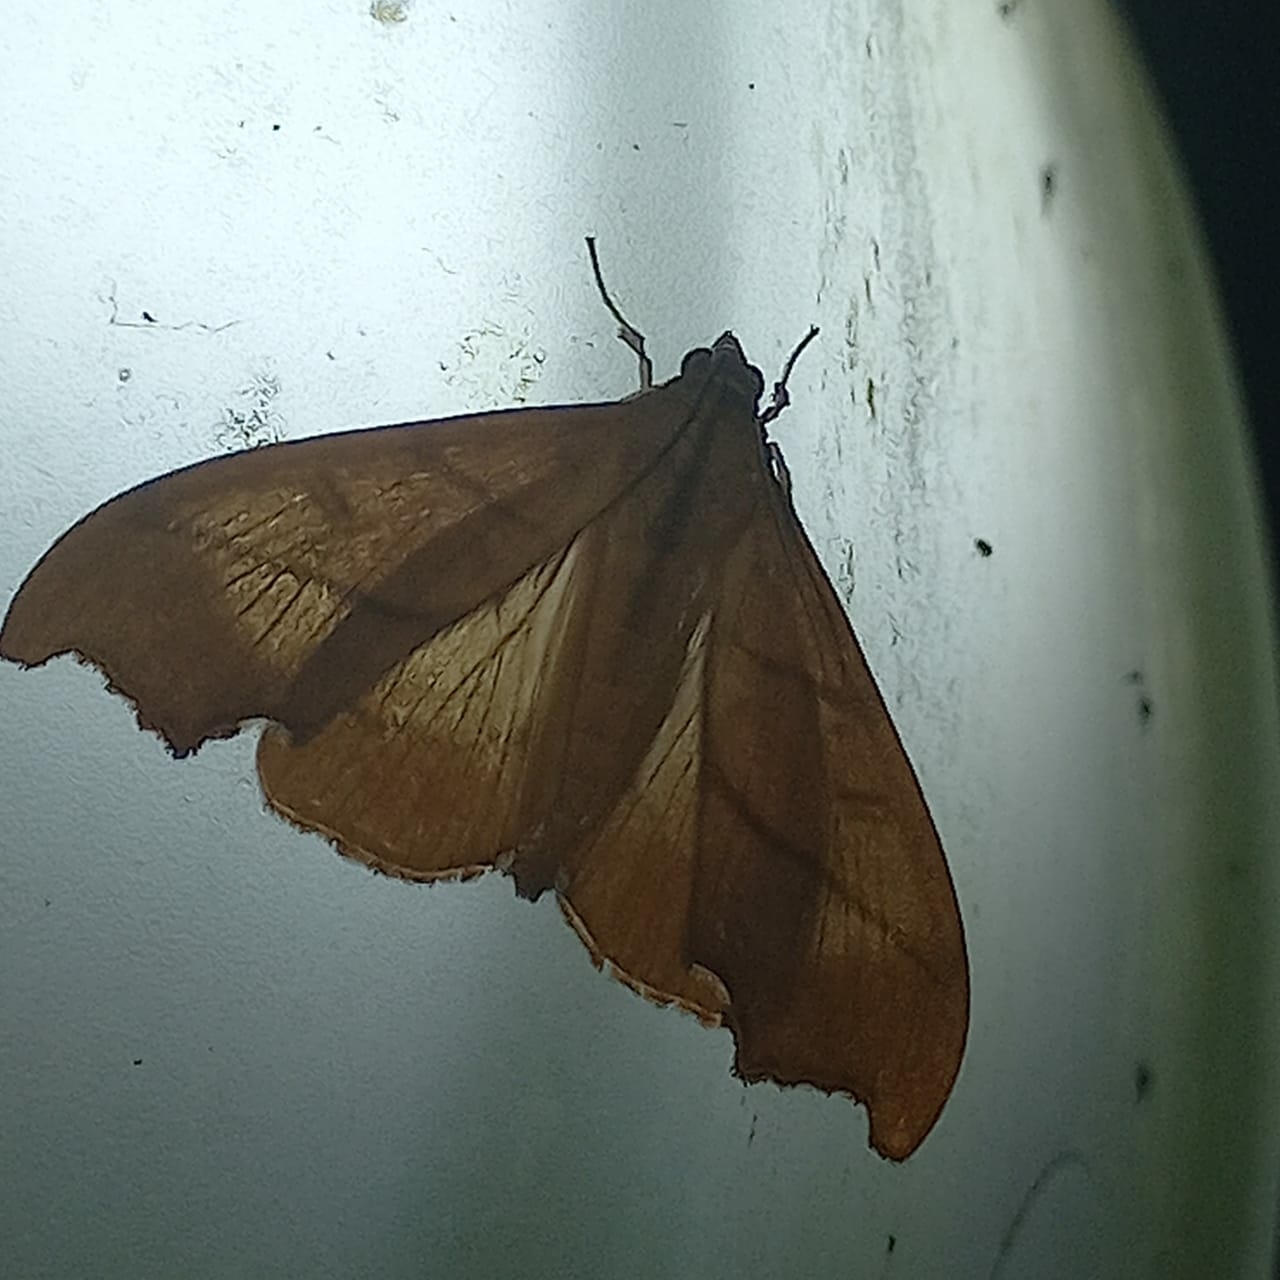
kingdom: Animalia
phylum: Arthropoda
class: Insecta
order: Lepidoptera
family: Crambidae
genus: Sparagmia
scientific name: Sparagmia gonoptera
